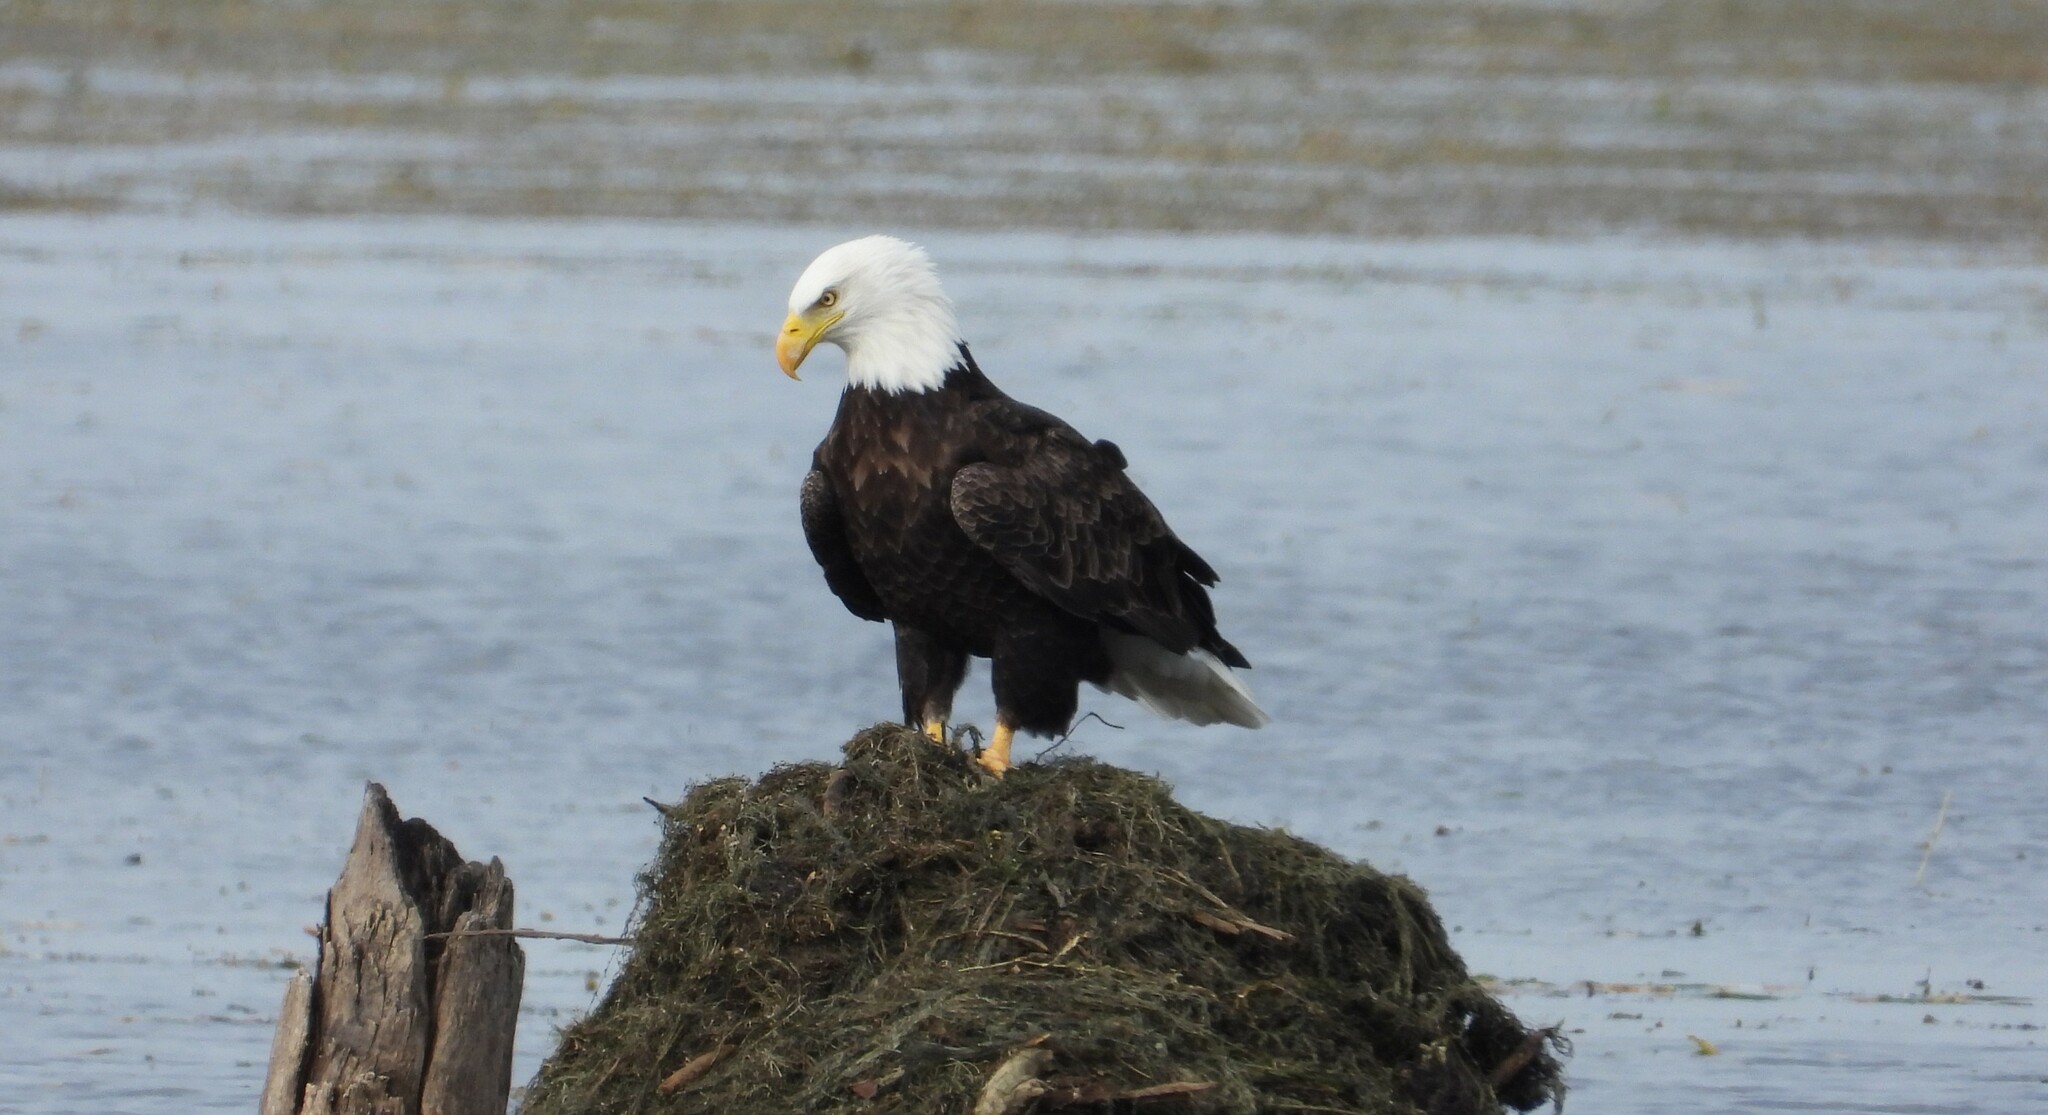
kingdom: Animalia
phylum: Chordata
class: Aves
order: Accipitriformes
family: Accipitridae
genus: Haliaeetus
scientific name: Haliaeetus leucocephalus
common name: Bald eagle
